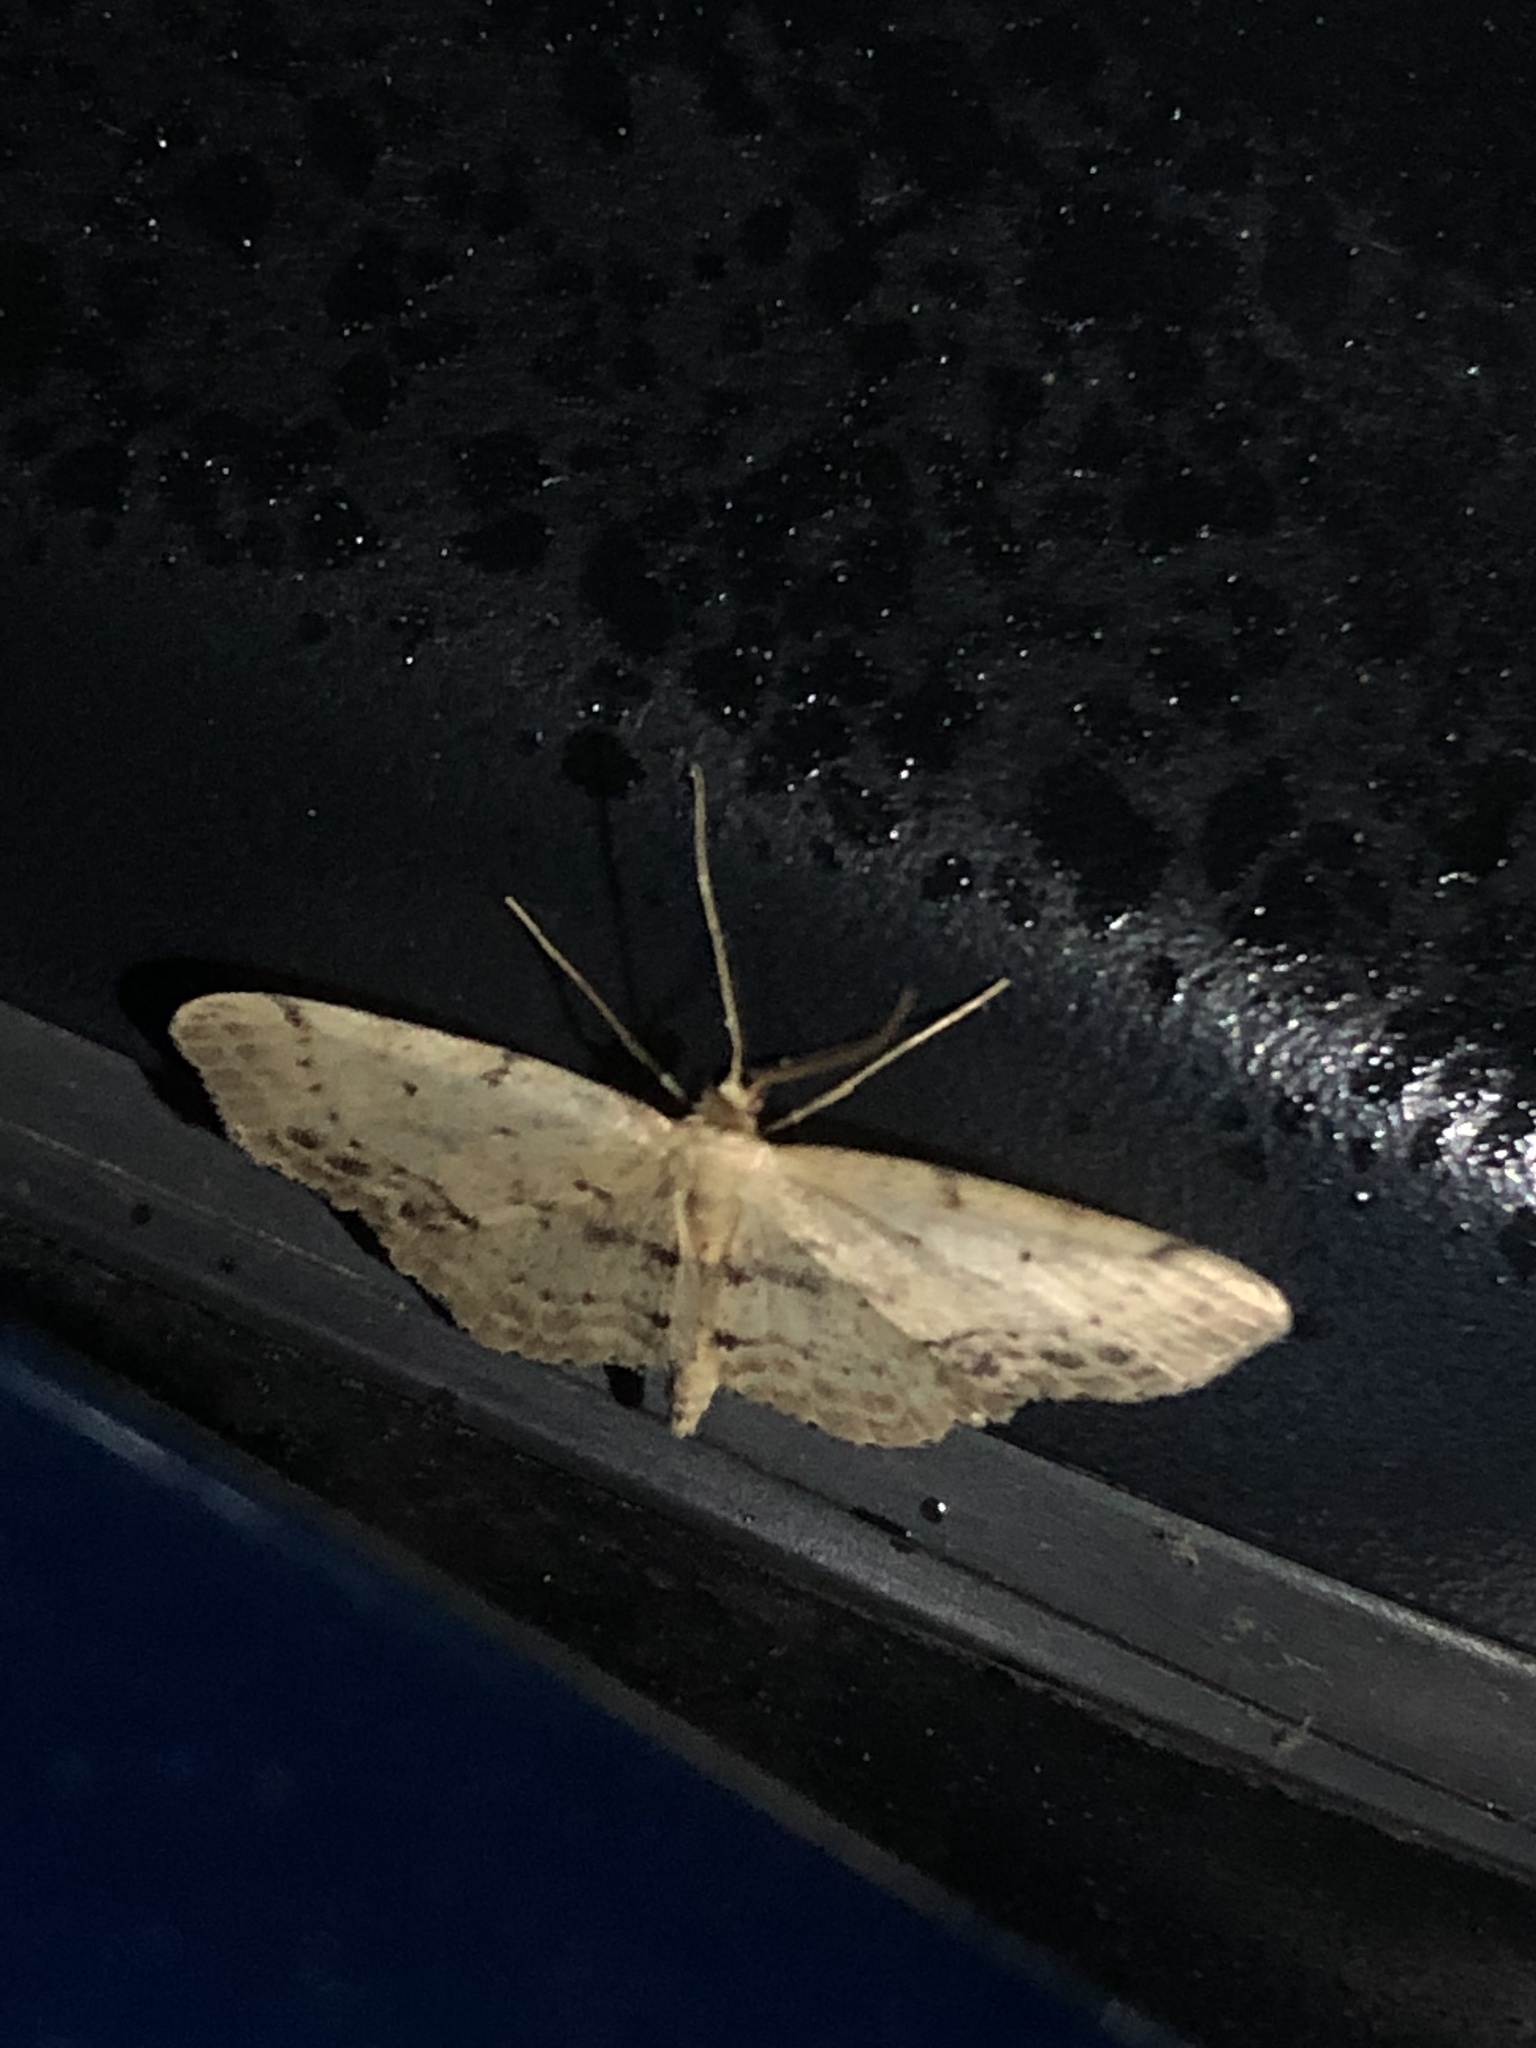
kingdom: Animalia
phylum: Arthropoda
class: Insecta
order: Lepidoptera
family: Geometridae
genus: Idaea
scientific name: Idaea dimidiata
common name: Single-dotted wave
